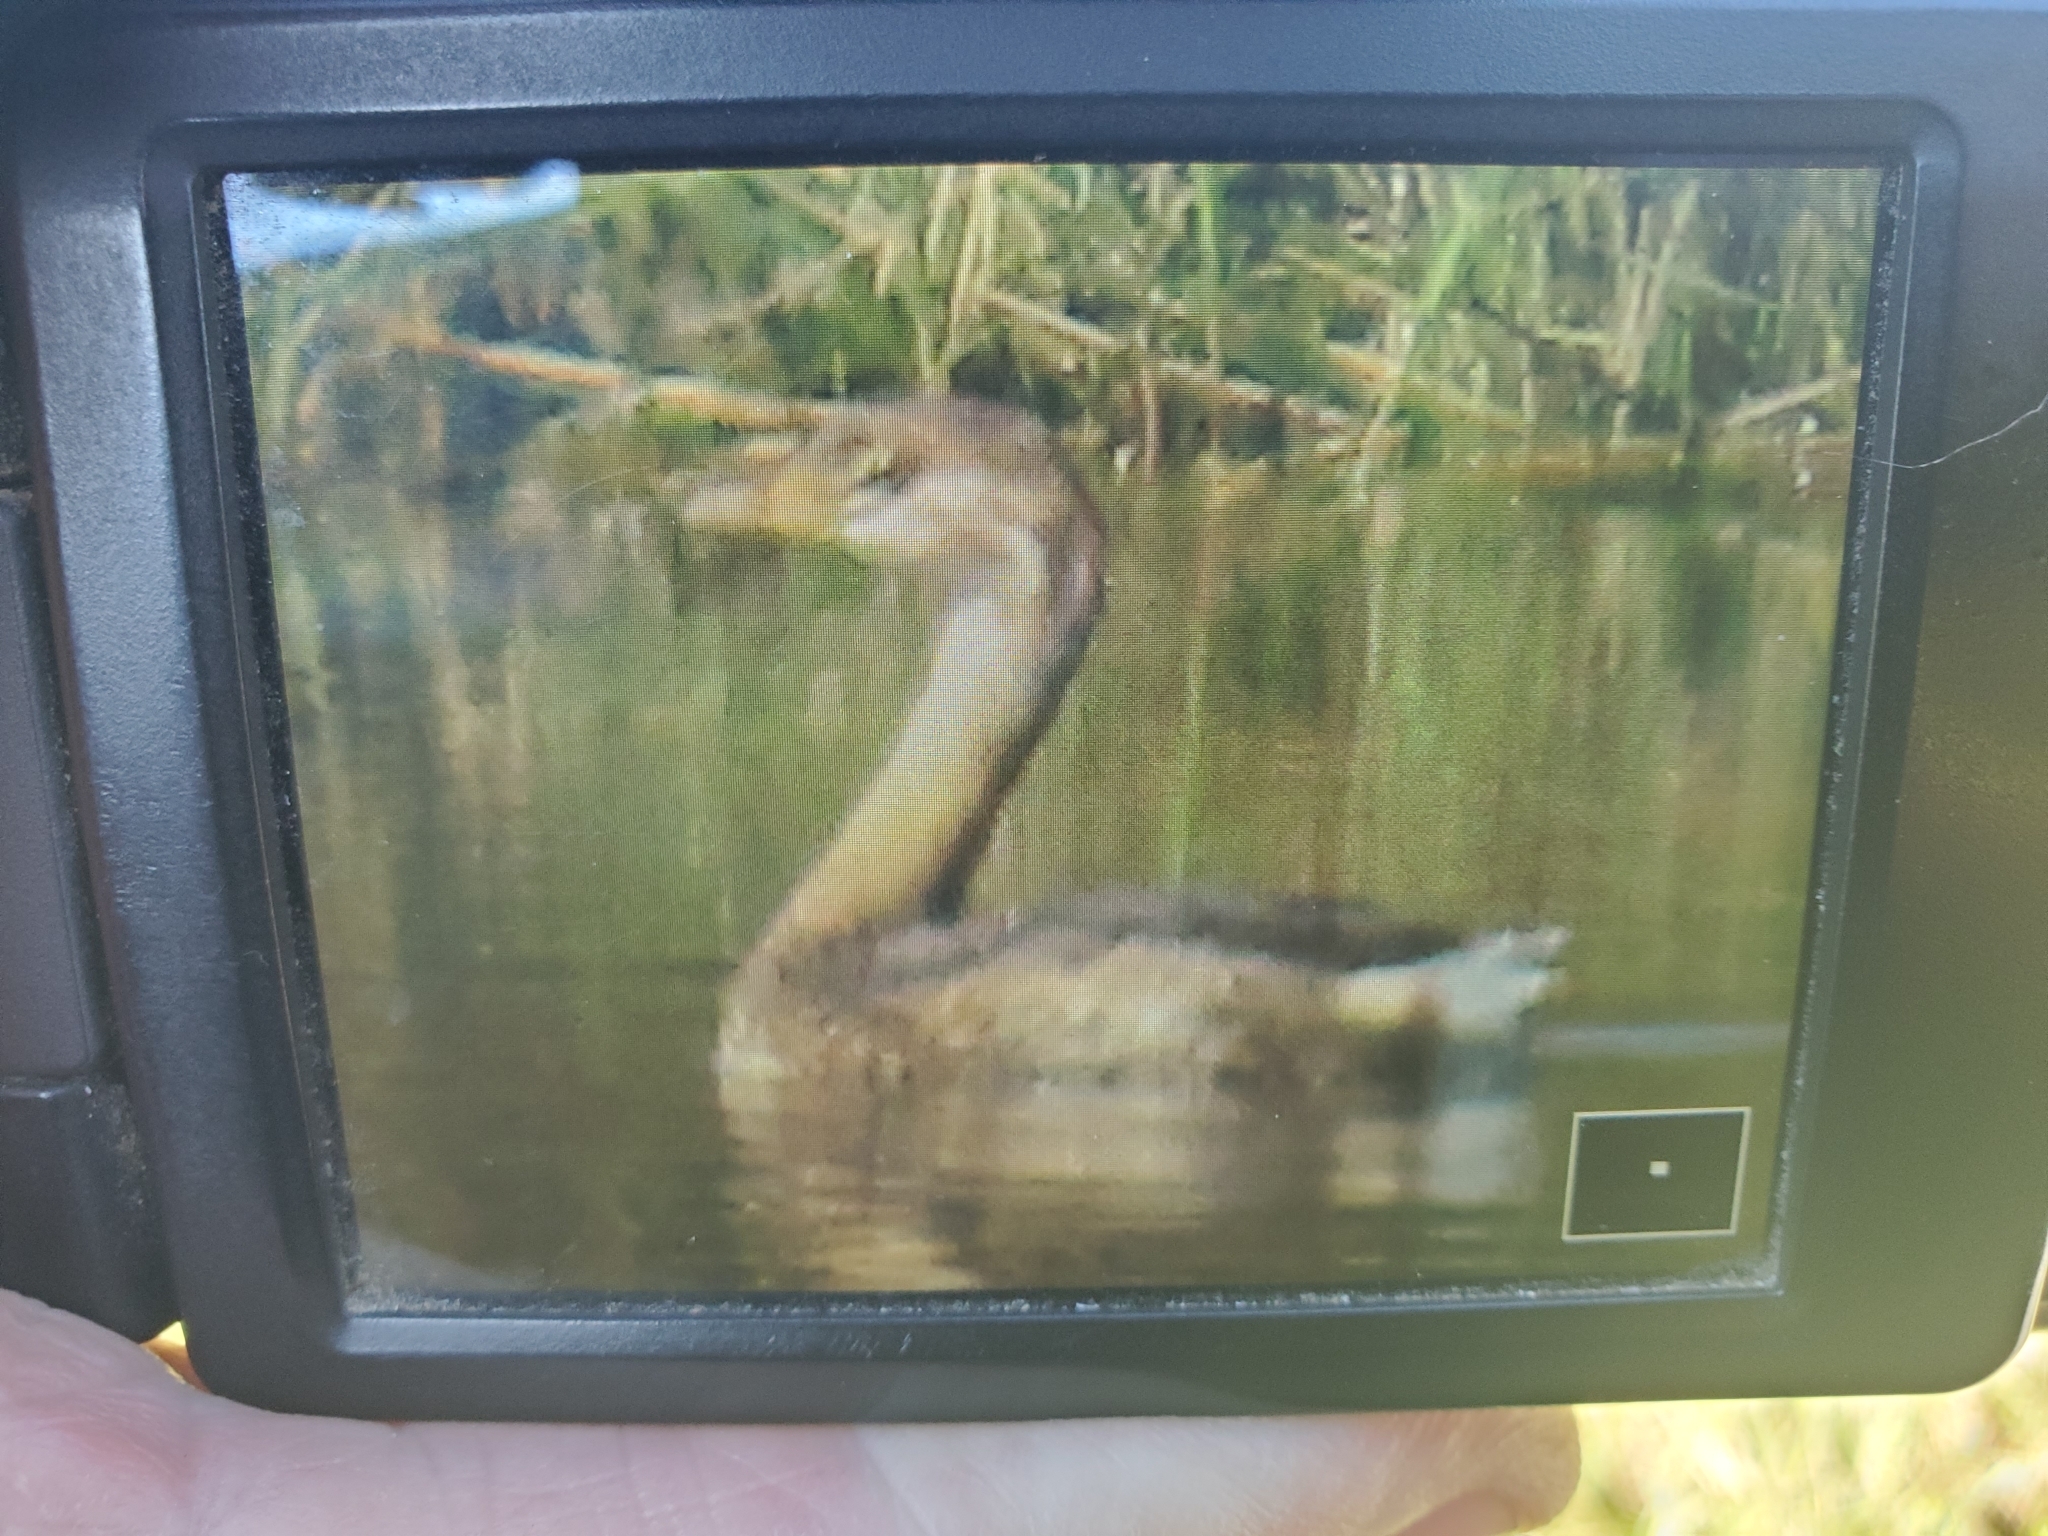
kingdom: Animalia
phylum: Chordata
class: Aves
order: Podicipediformes
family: Podicipedidae
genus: Podilymbus
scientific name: Podilymbus podiceps
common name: Pied-billed grebe
